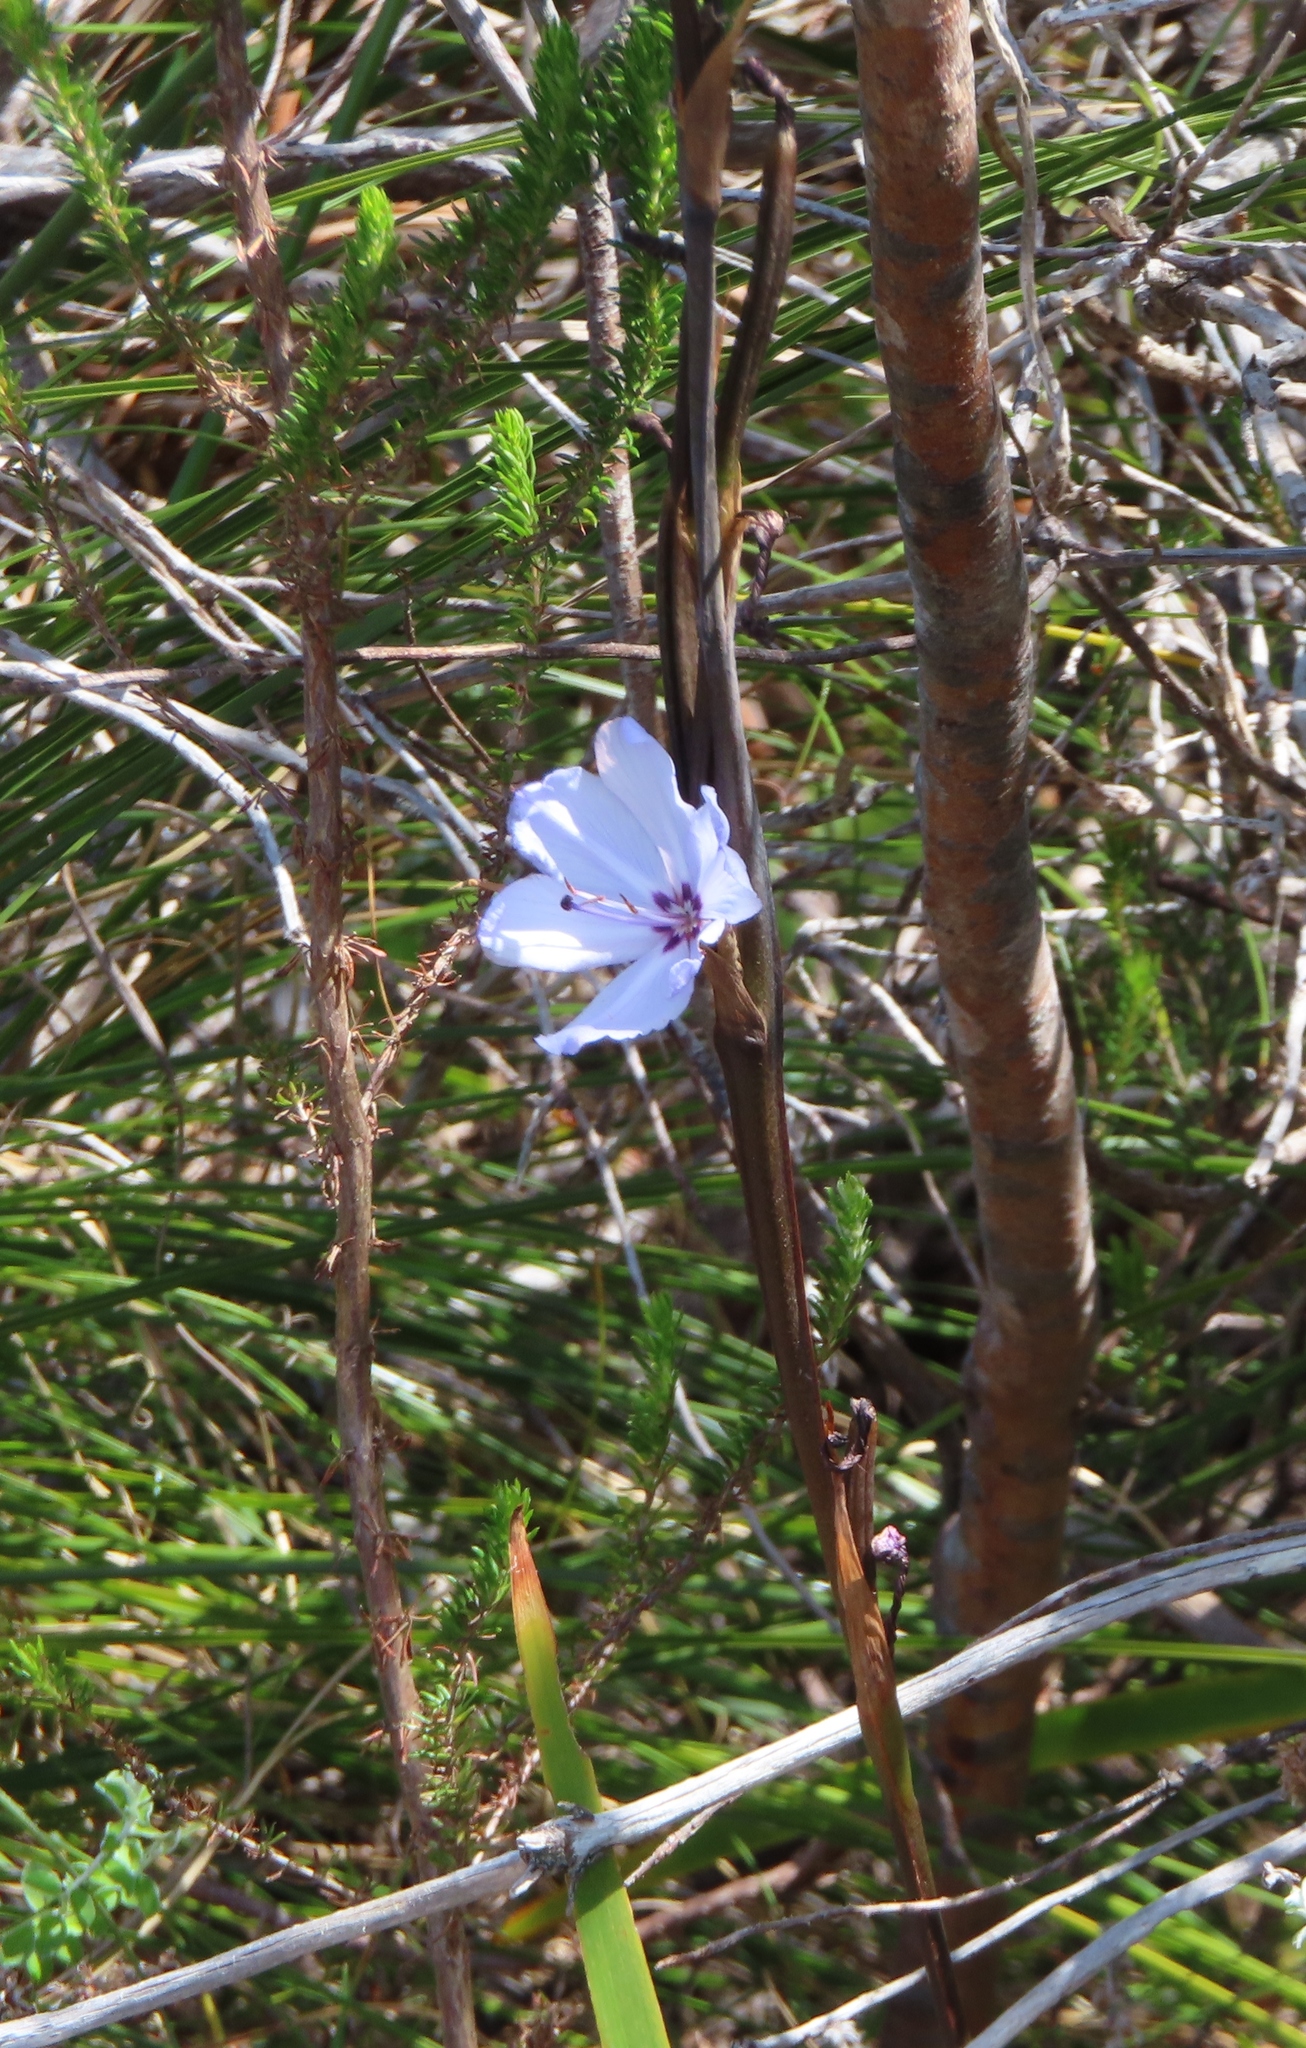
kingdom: Plantae
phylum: Tracheophyta
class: Liliopsida
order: Asparagales
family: Iridaceae
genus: Aristea
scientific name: Aristea spiralis
